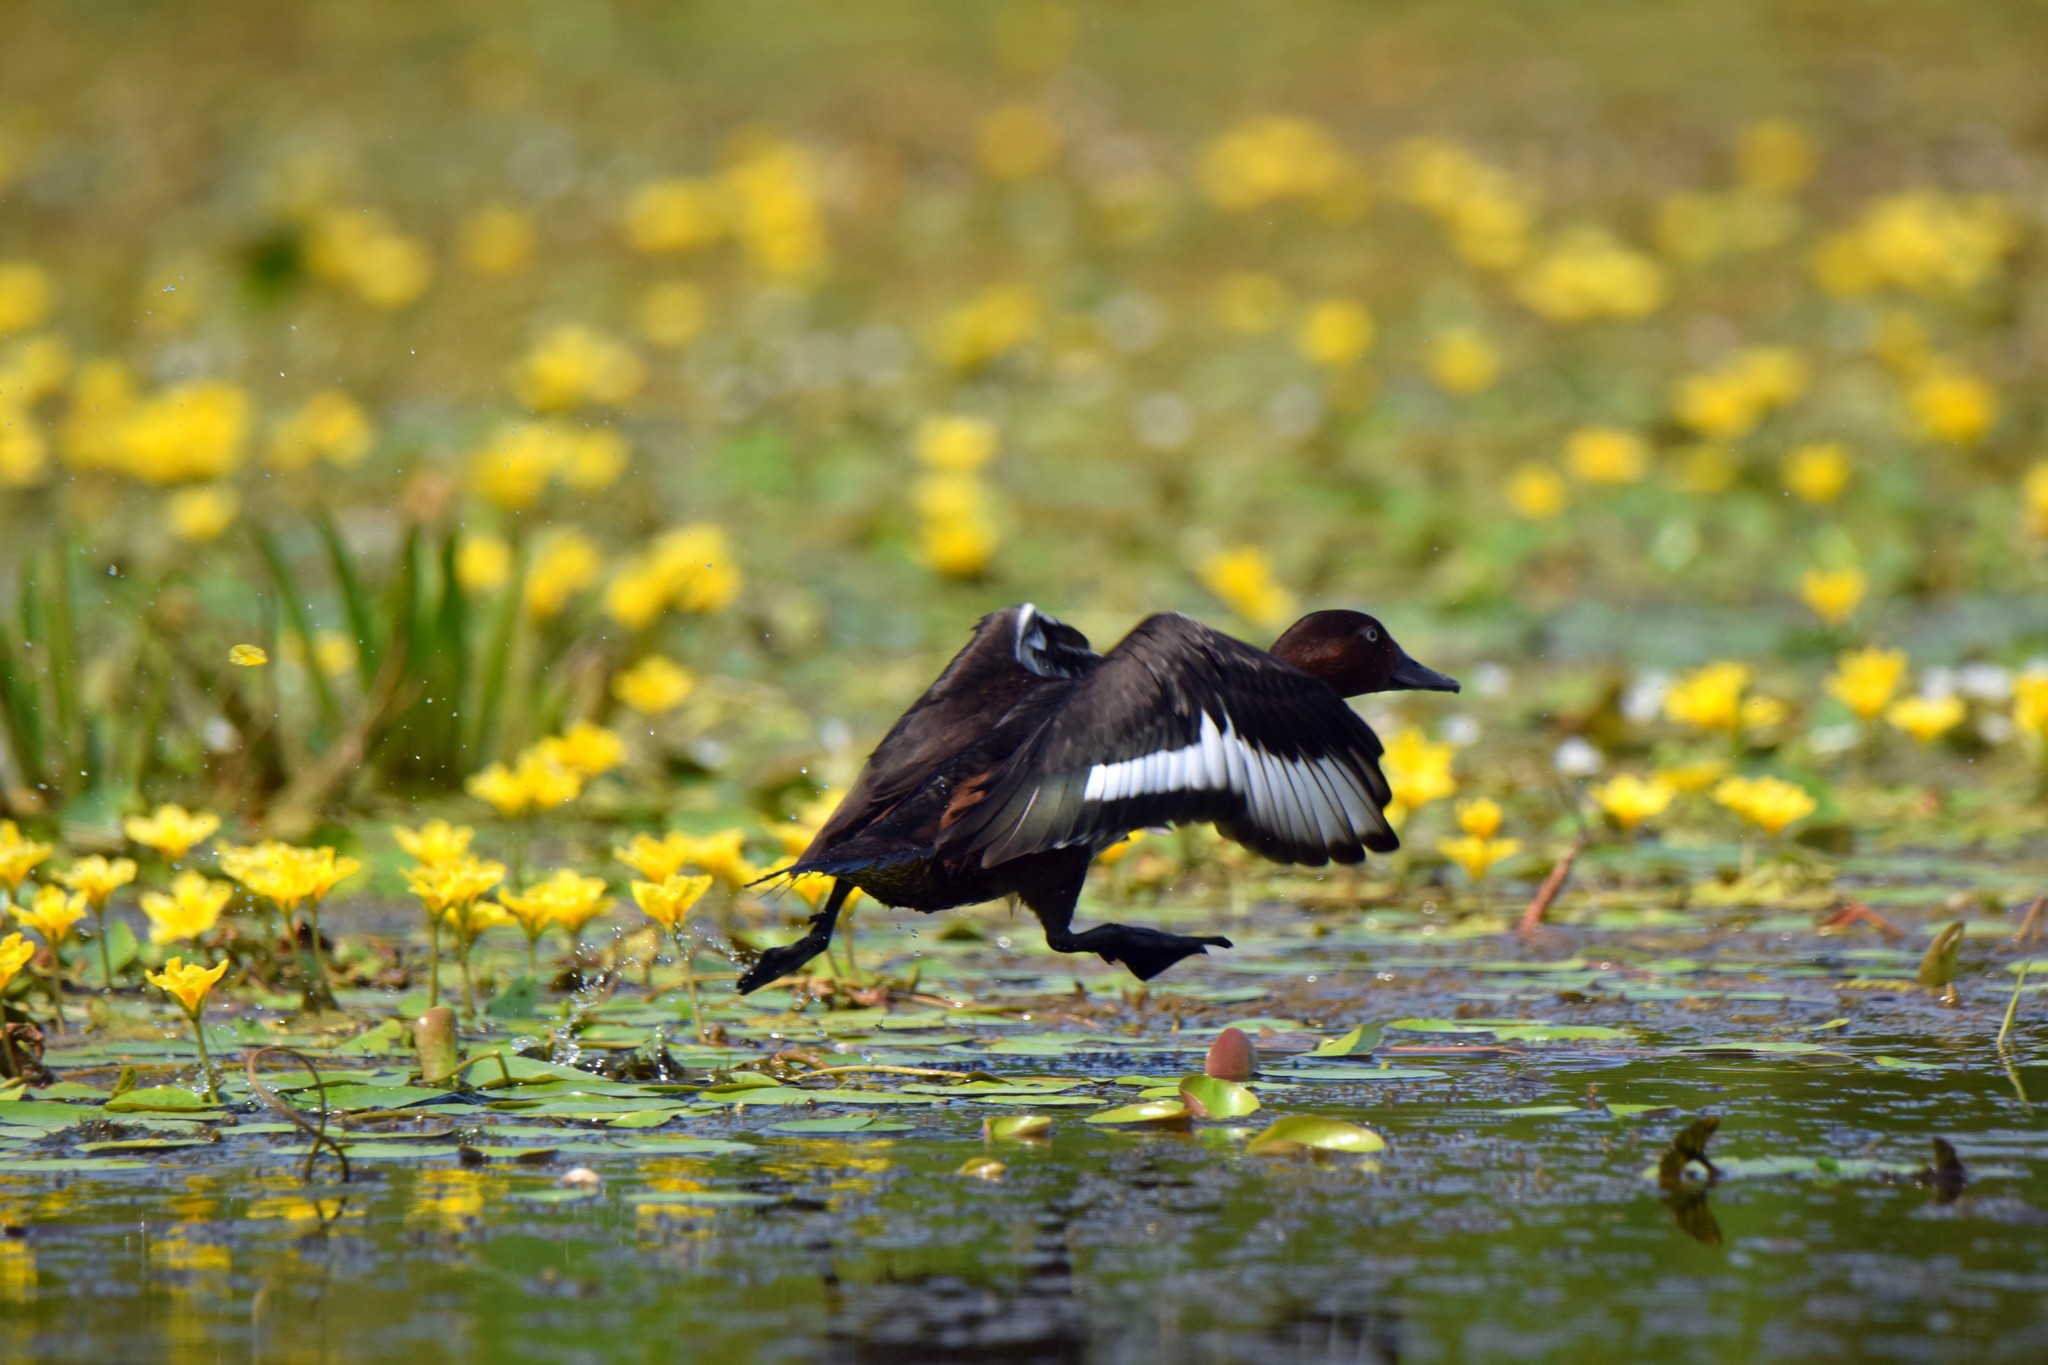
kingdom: Animalia
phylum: Chordata
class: Aves
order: Anseriformes
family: Anatidae
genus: Aythya
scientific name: Aythya nyroca
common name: Ferruginous duck
